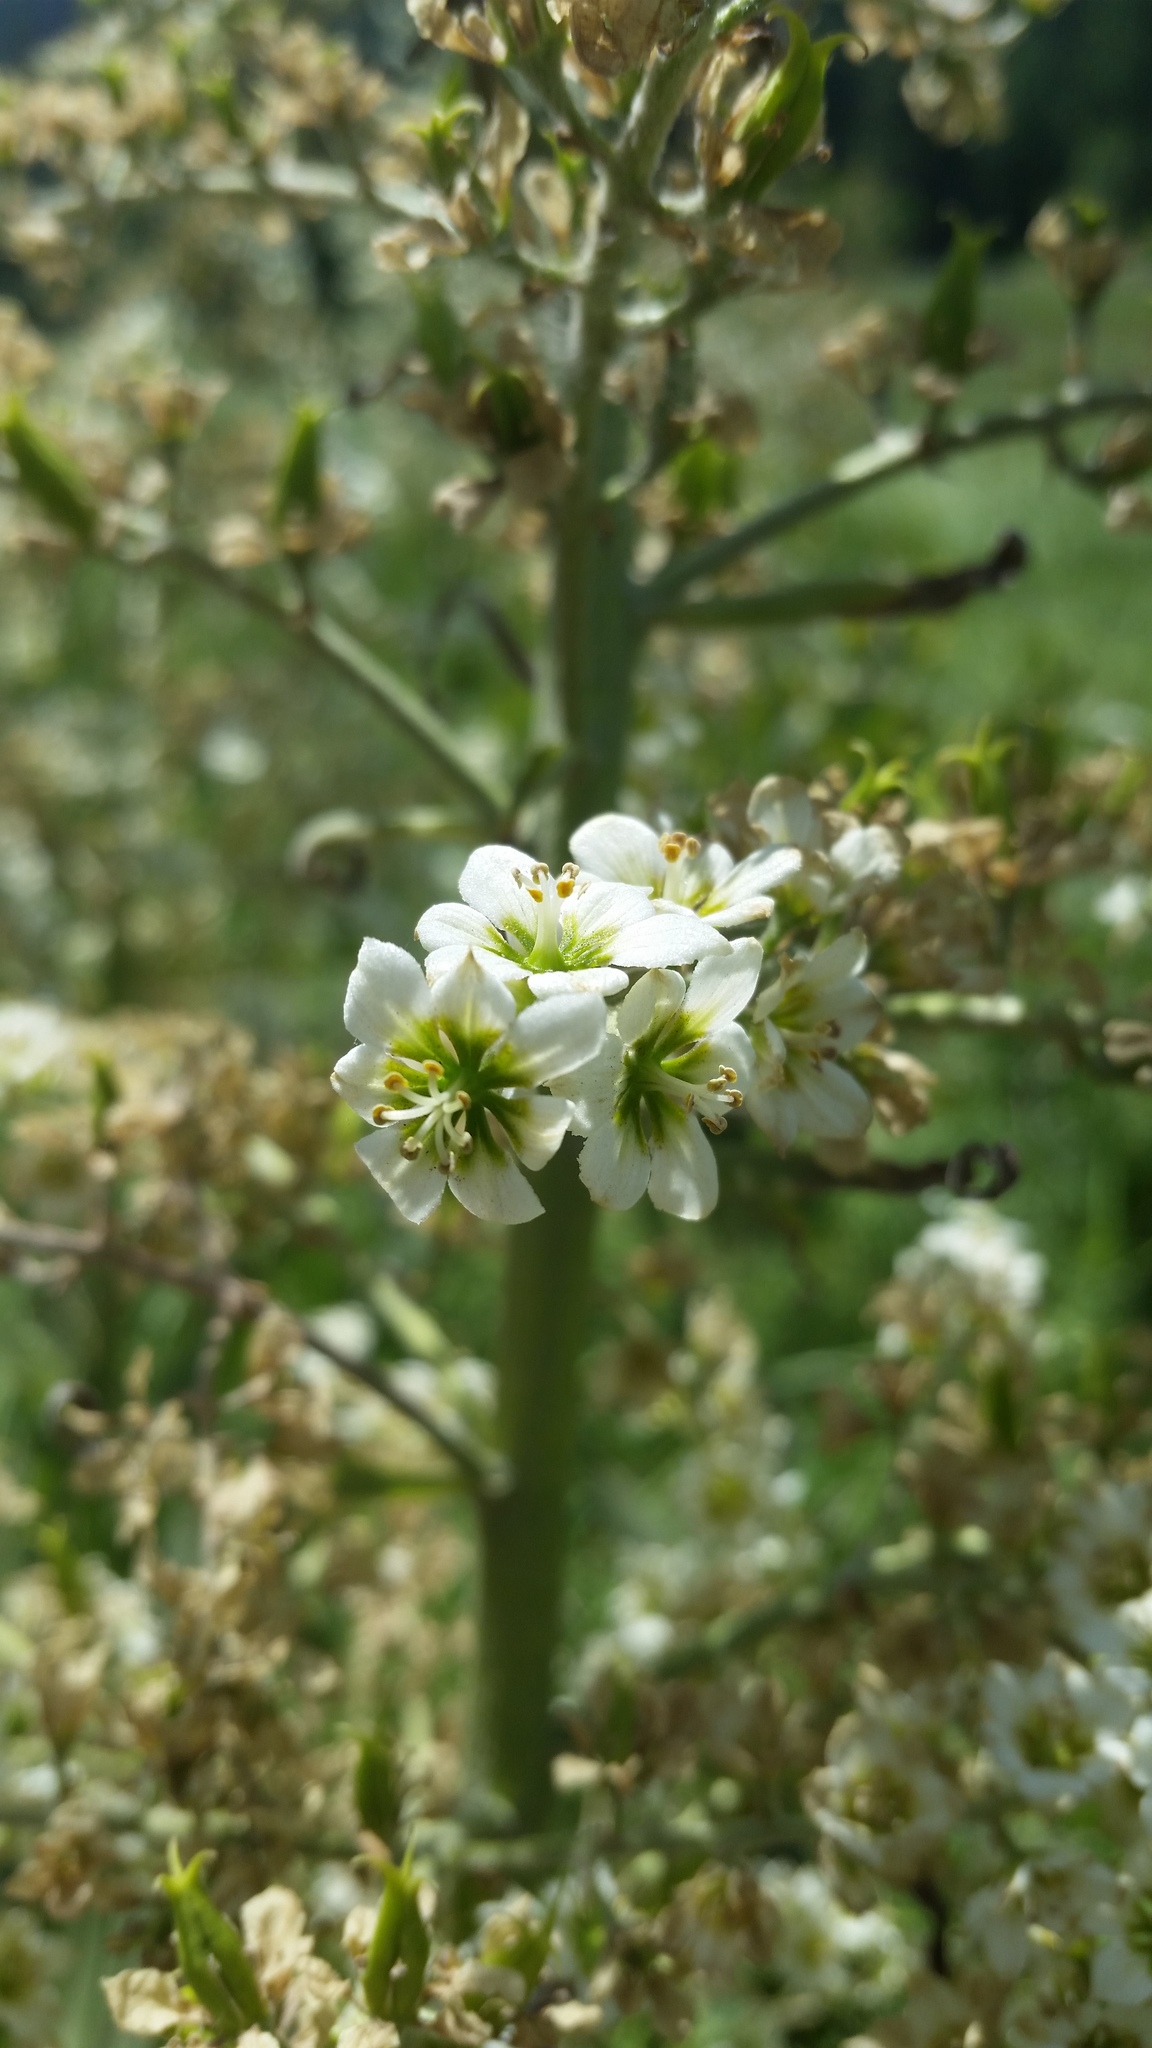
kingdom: Plantae
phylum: Tracheophyta
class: Liliopsida
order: Liliales
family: Melanthiaceae
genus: Veratrum
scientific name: Veratrum californicum
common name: California veratrum
